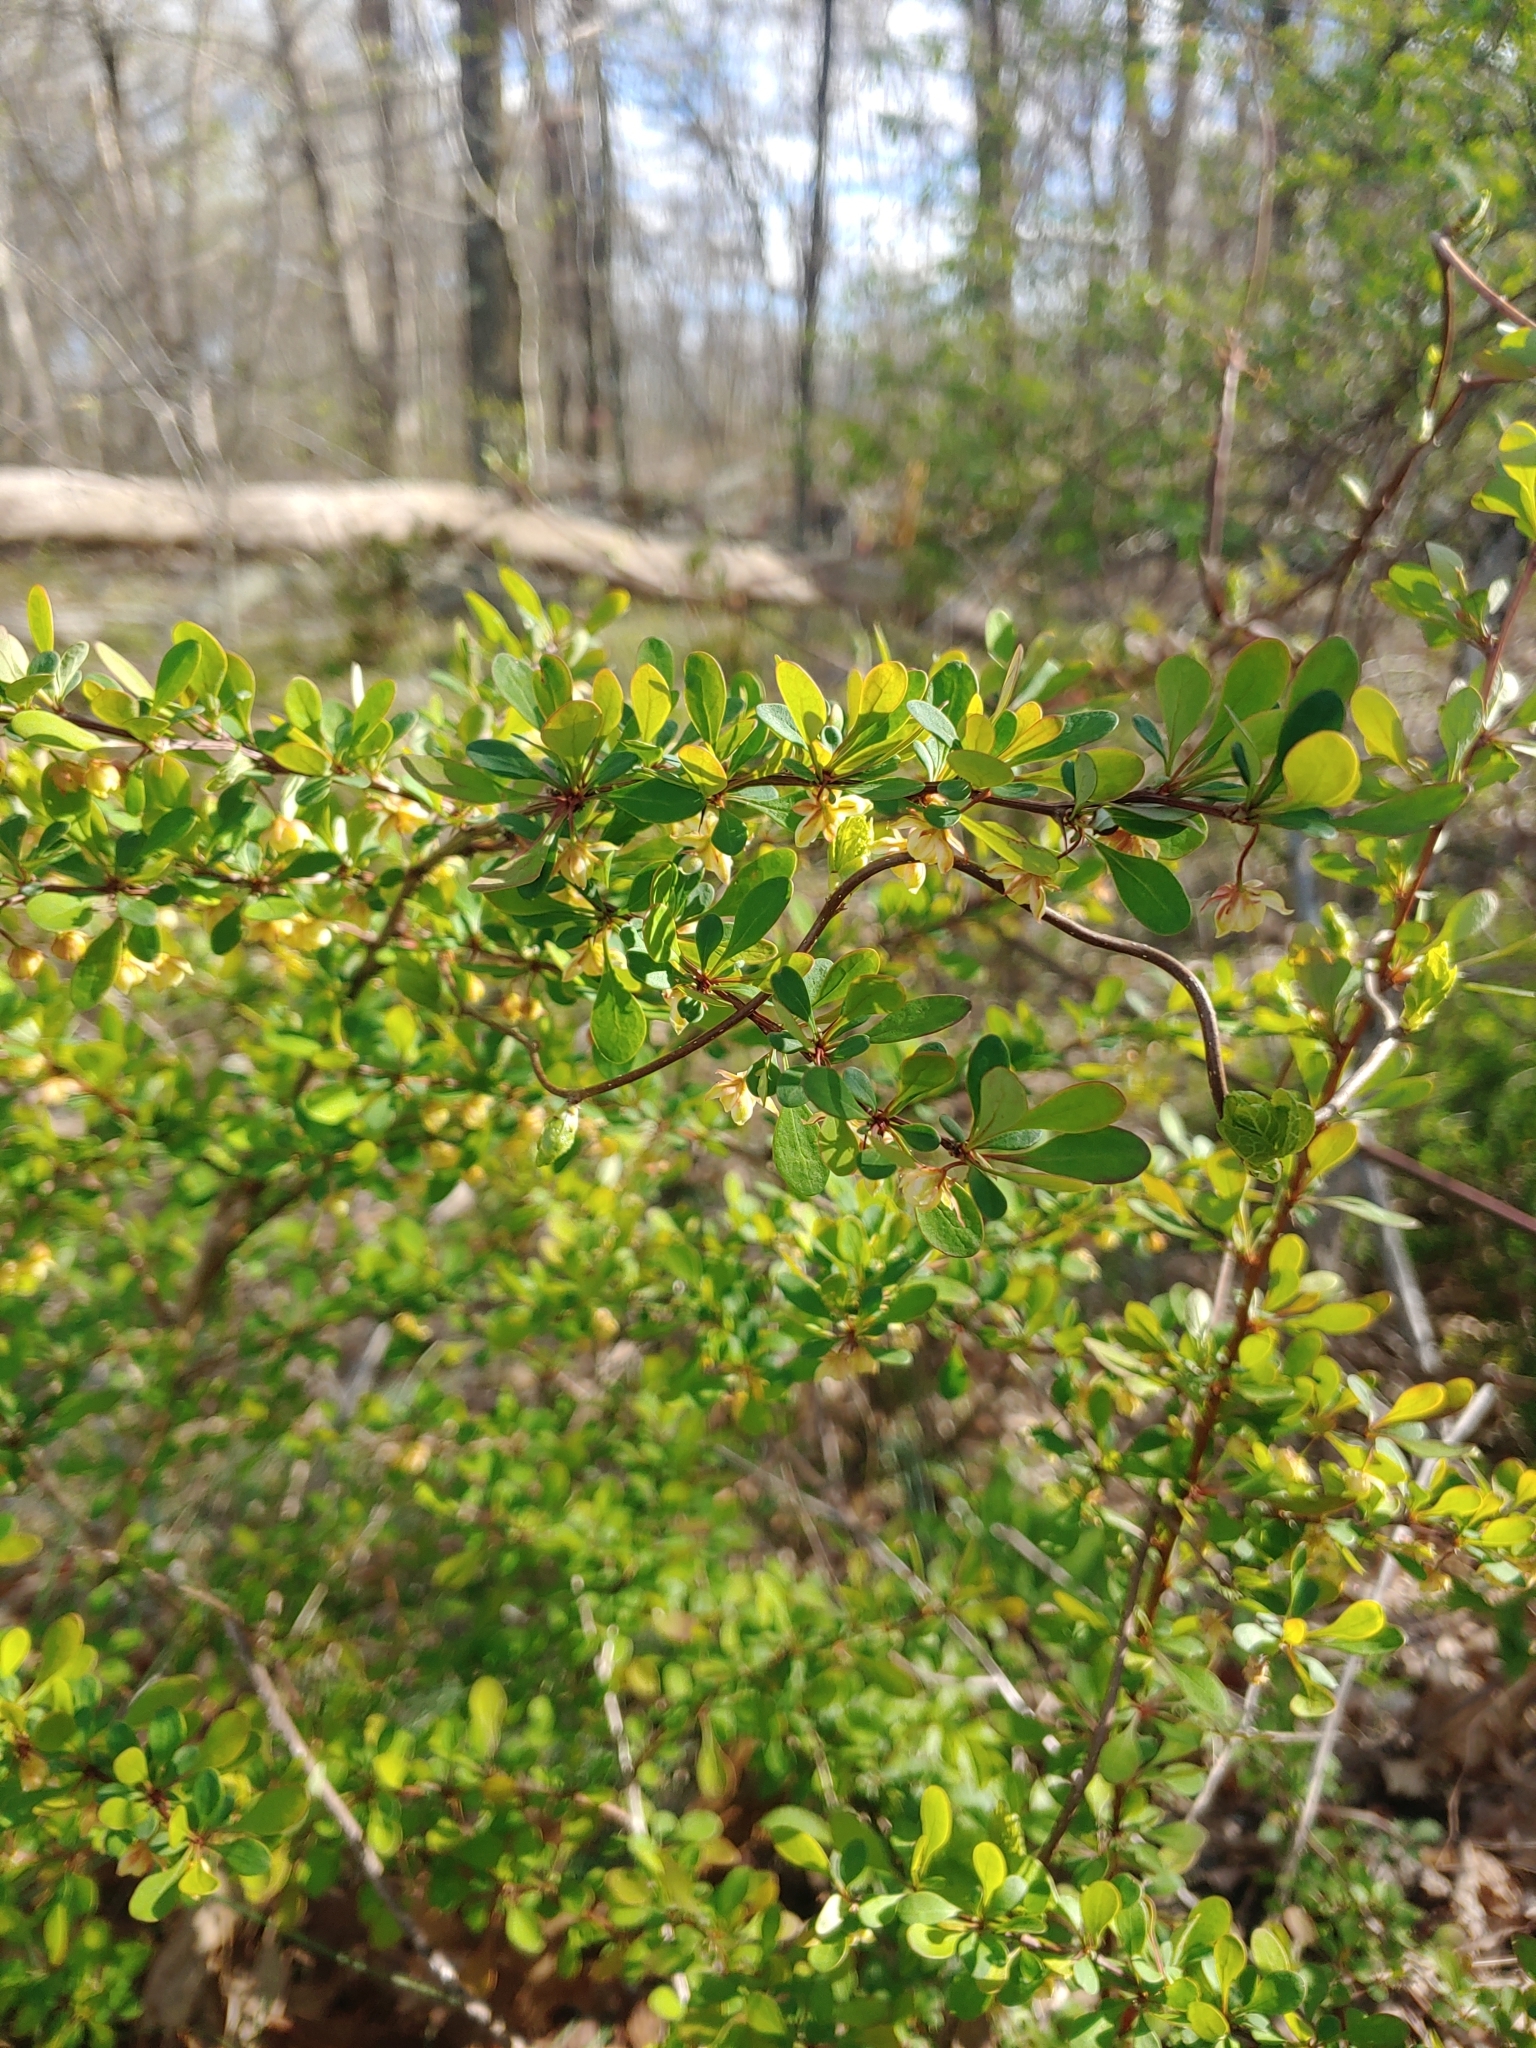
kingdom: Plantae
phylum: Tracheophyta
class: Magnoliopsida
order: Ranunculales
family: Berberidaceae
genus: Berberis
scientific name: Berberis thunbergii
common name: Japanese barberry
